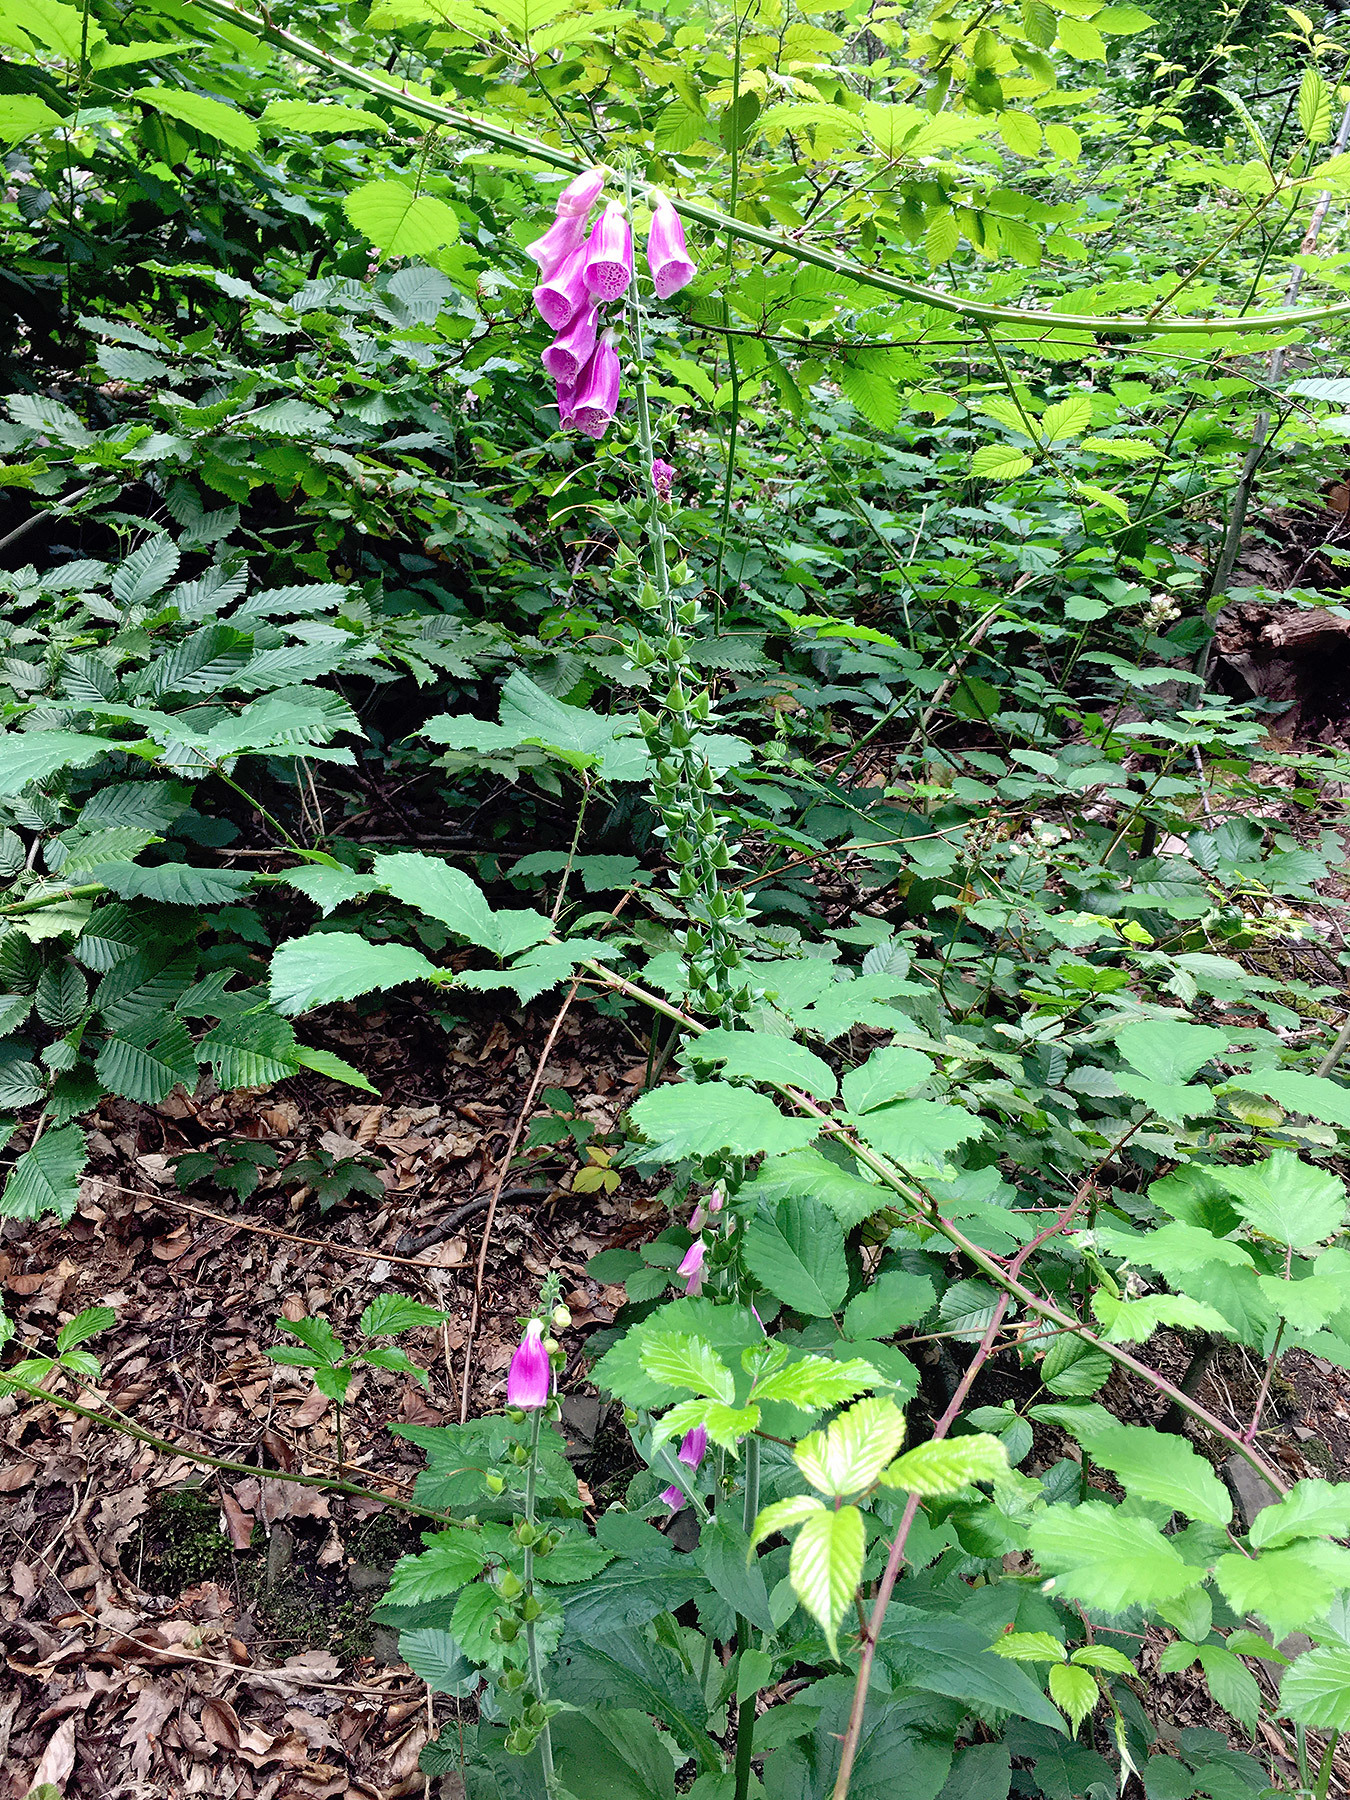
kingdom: Plantae
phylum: Tracheophyta
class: Magnoliopsida
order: Lamiales
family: Plantaginaceae
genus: Digitalis
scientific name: Digitalis purpurea
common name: Foxglove
